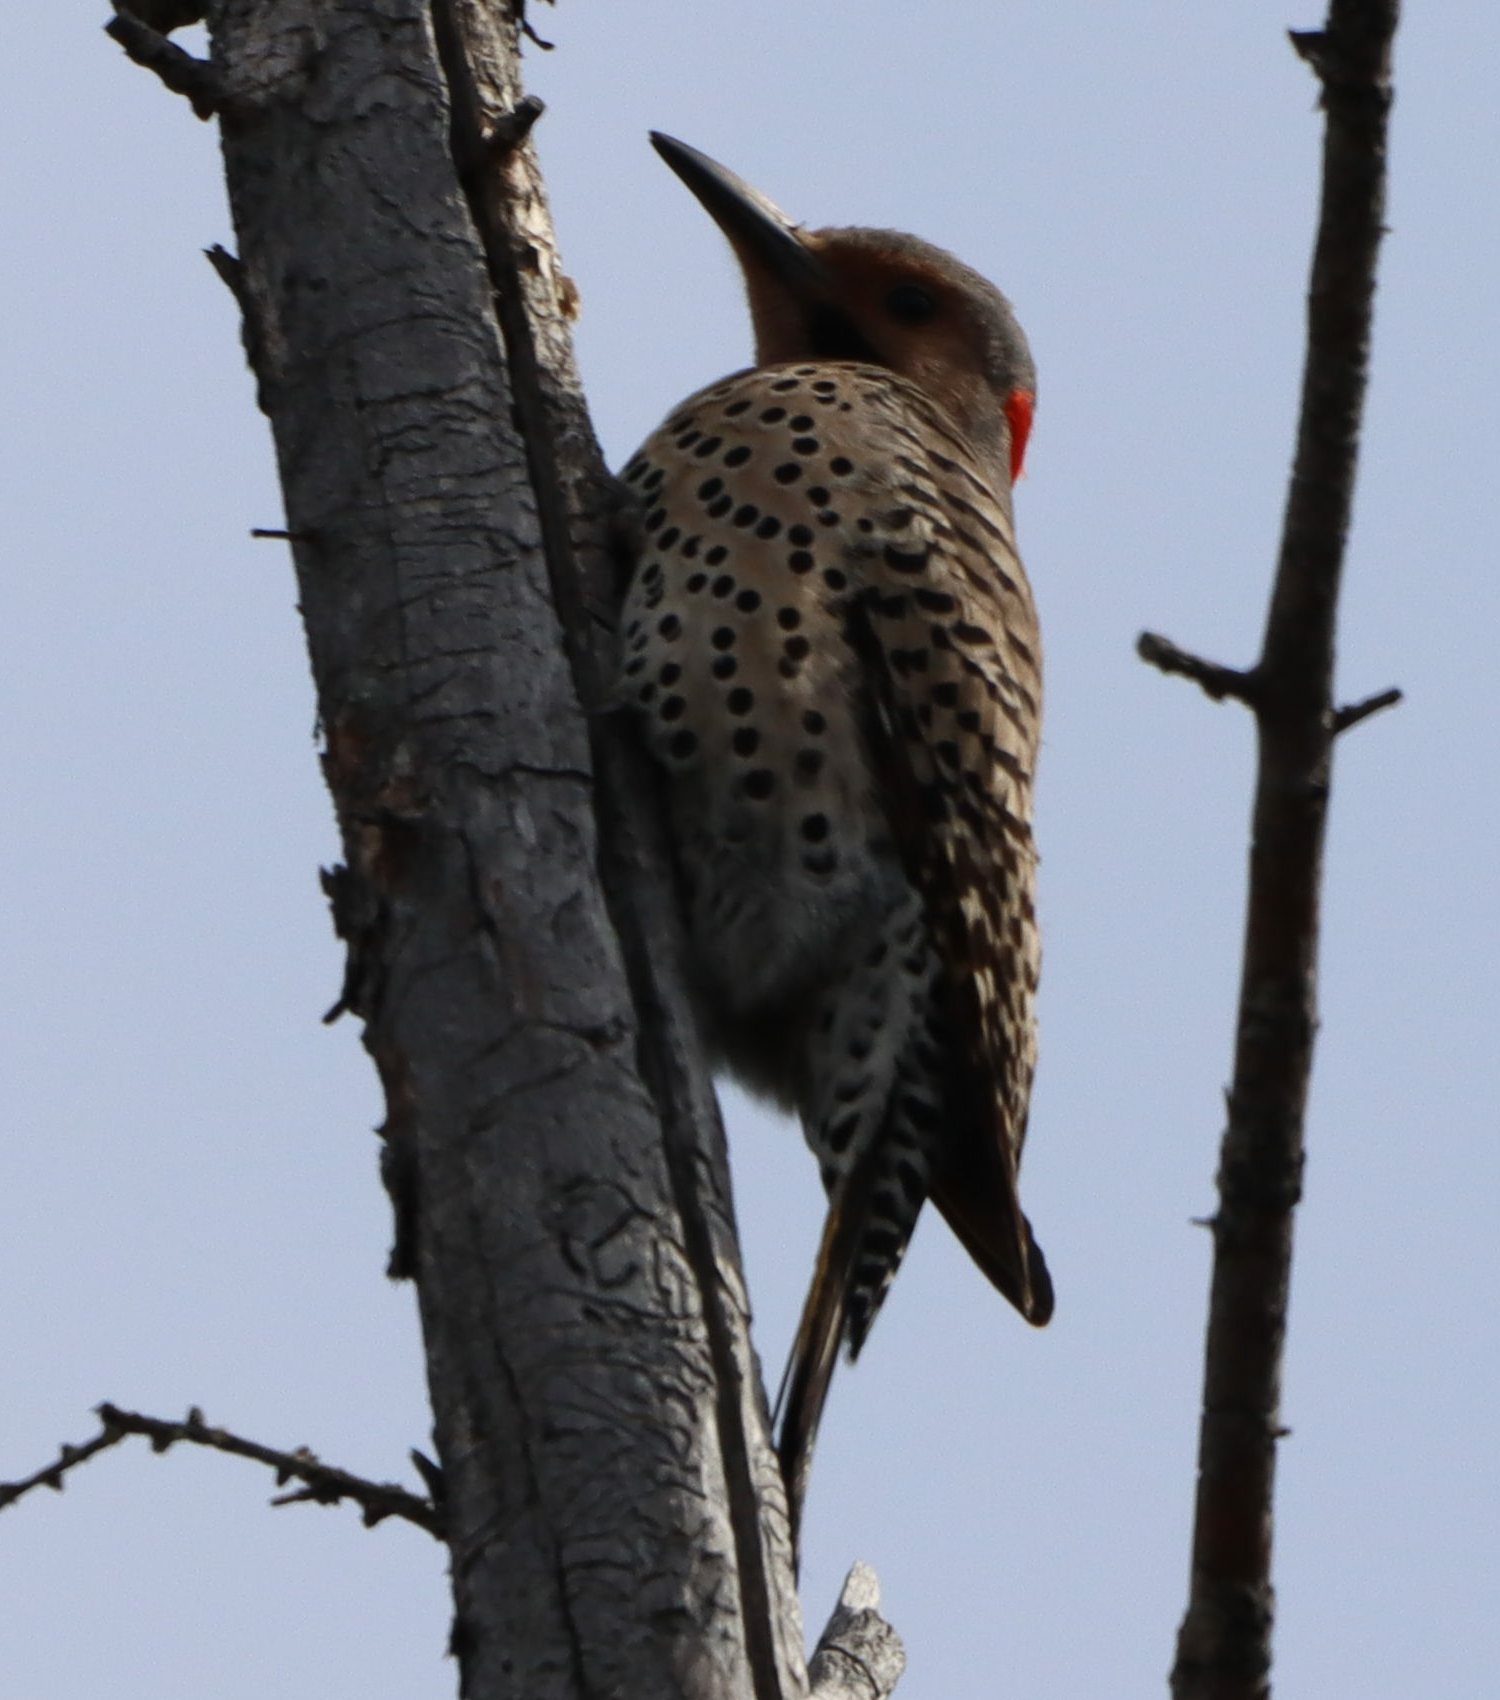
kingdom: Animalia
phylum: Chordata
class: Aves
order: Piciformes
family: Picidae
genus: Colaptes
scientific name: Colaptes auratus
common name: Northern flicker
